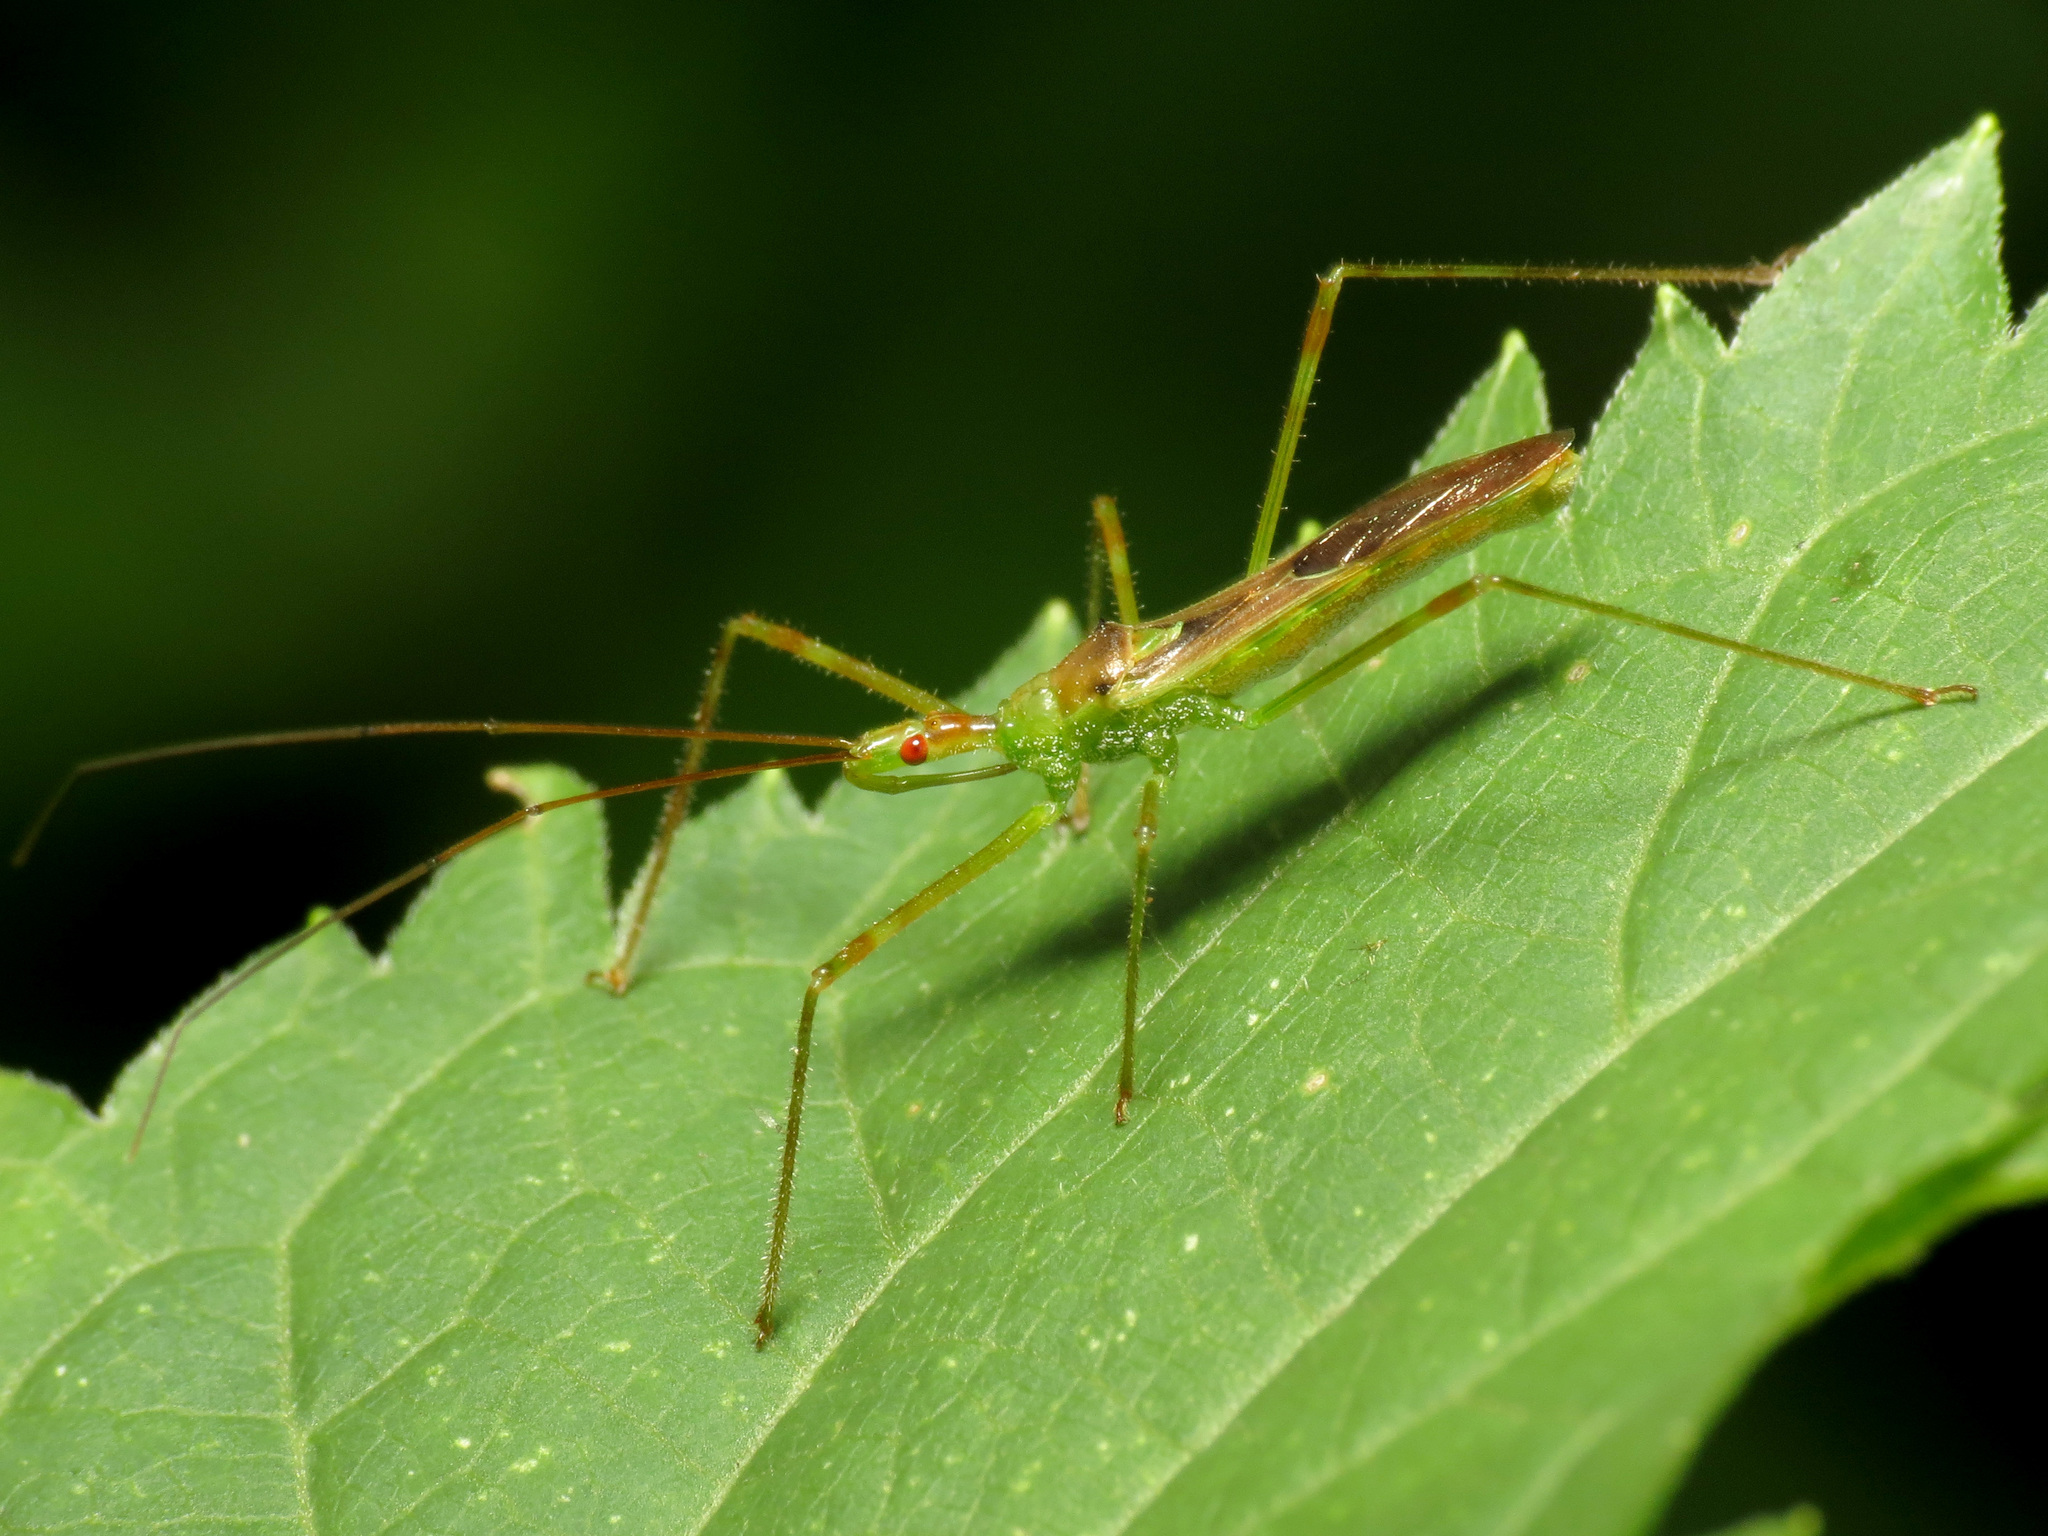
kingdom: Animalia
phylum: Arthropoda
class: Insecta
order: Hemiptera
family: Reduviidae
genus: Zelus
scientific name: Zelus luridus
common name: Pale green assassin bug
